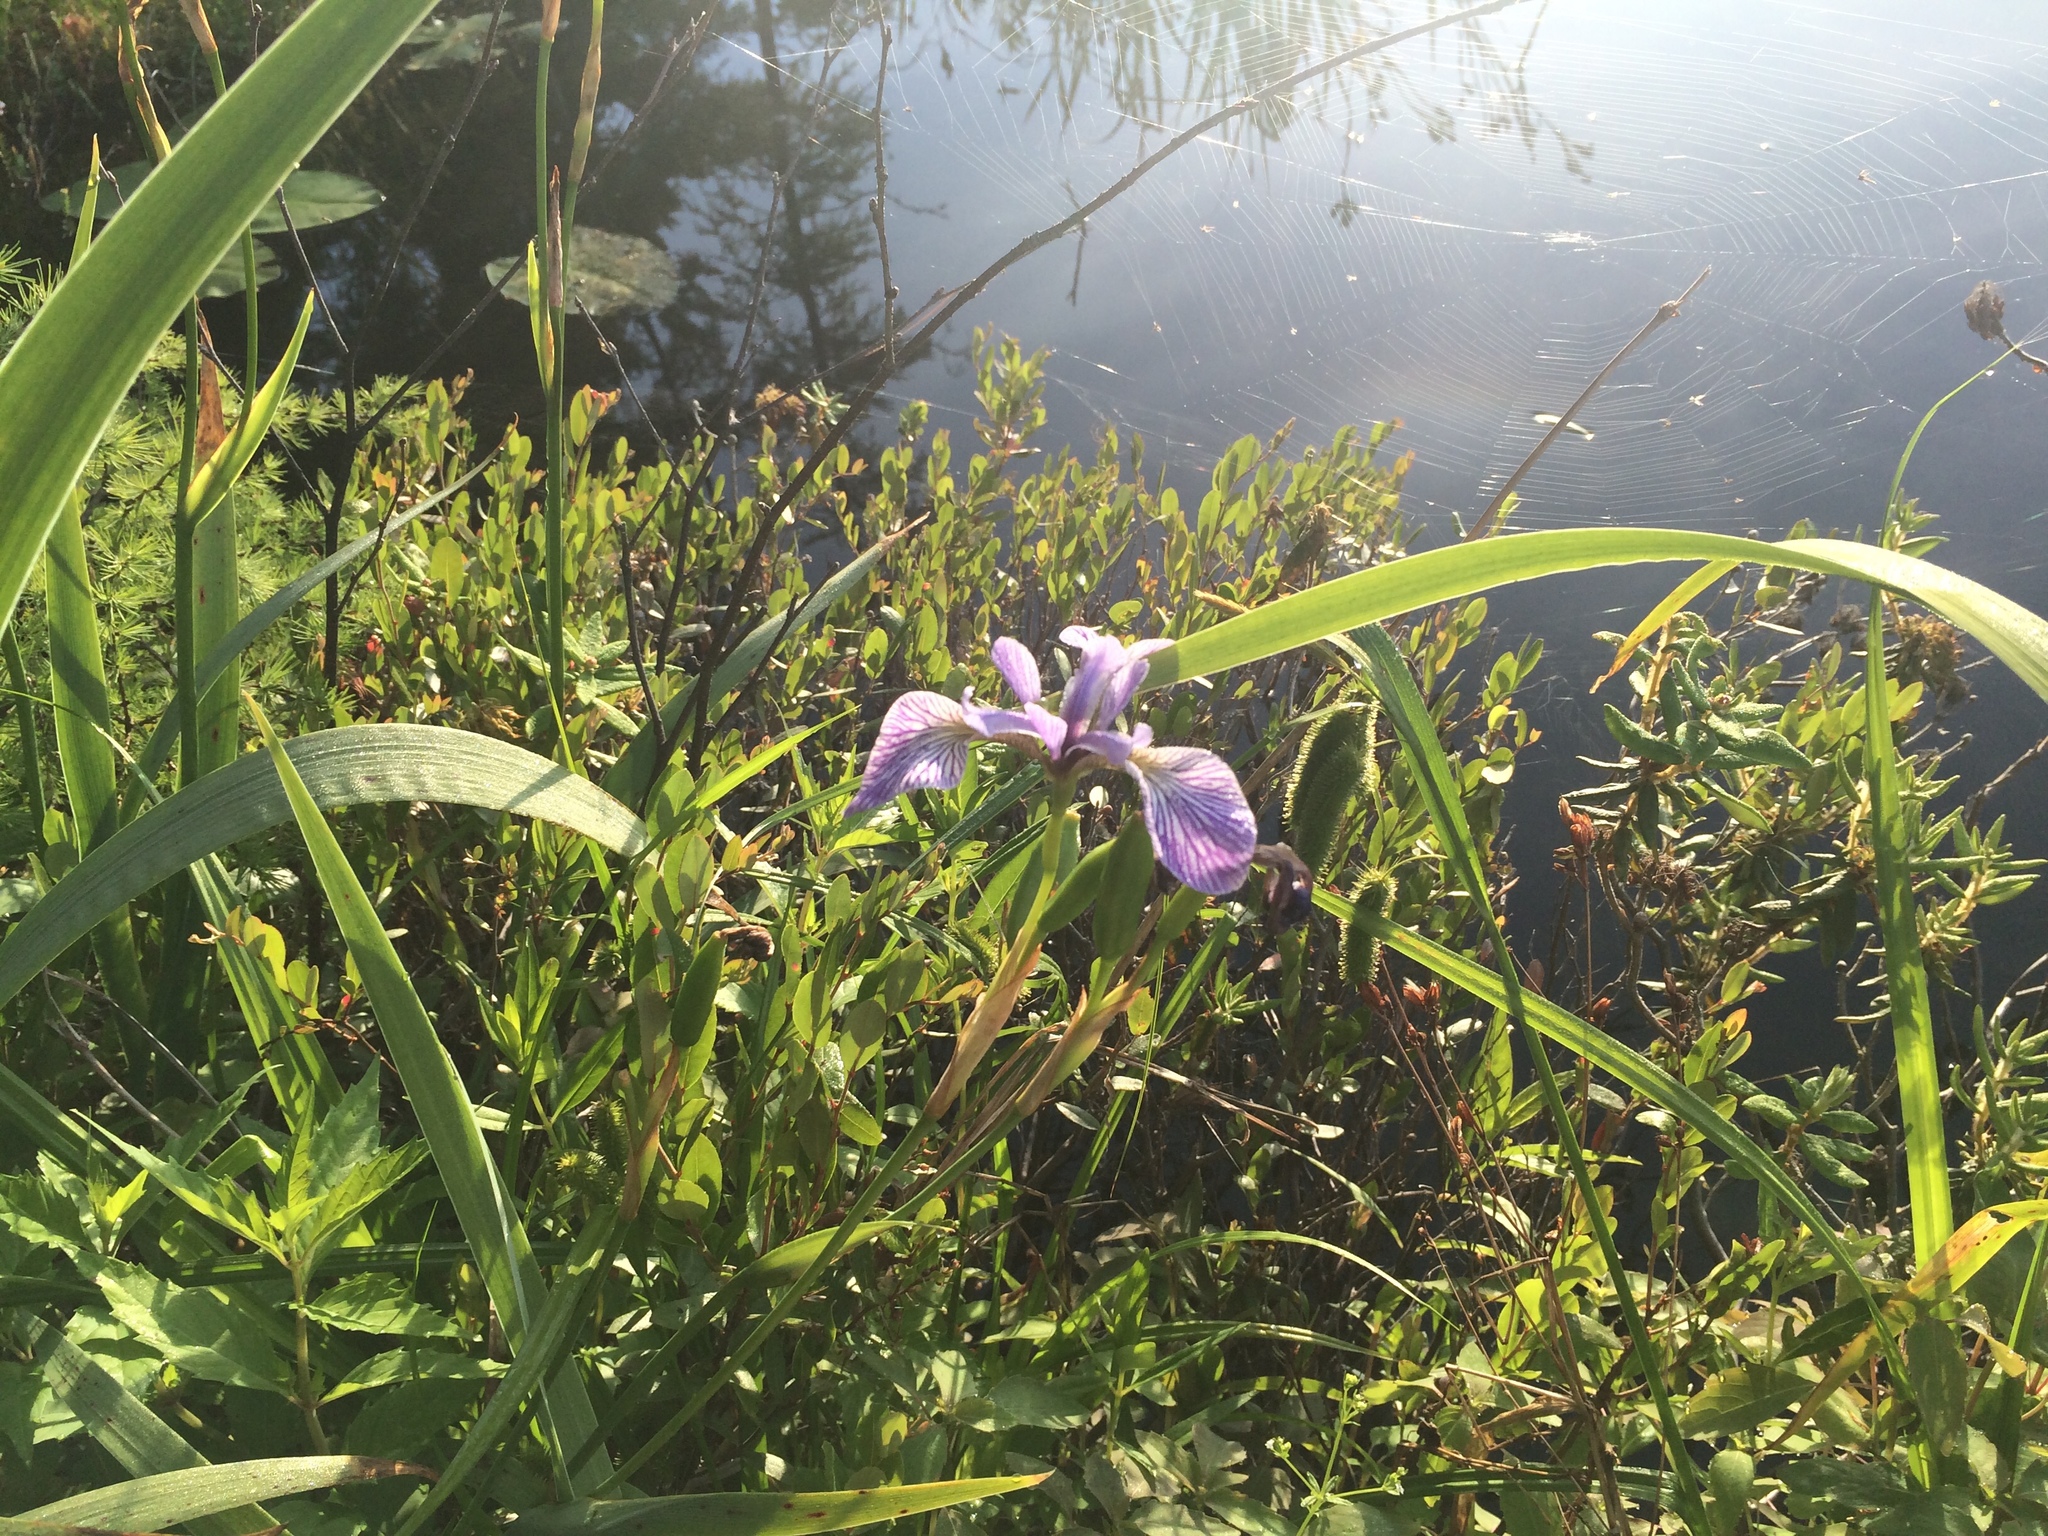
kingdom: Plantae
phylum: Tracheophyta
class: Liliopsida
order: Asparagales
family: Iridaceae
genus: Iris
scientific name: Iris versicolor
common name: Purple iris
